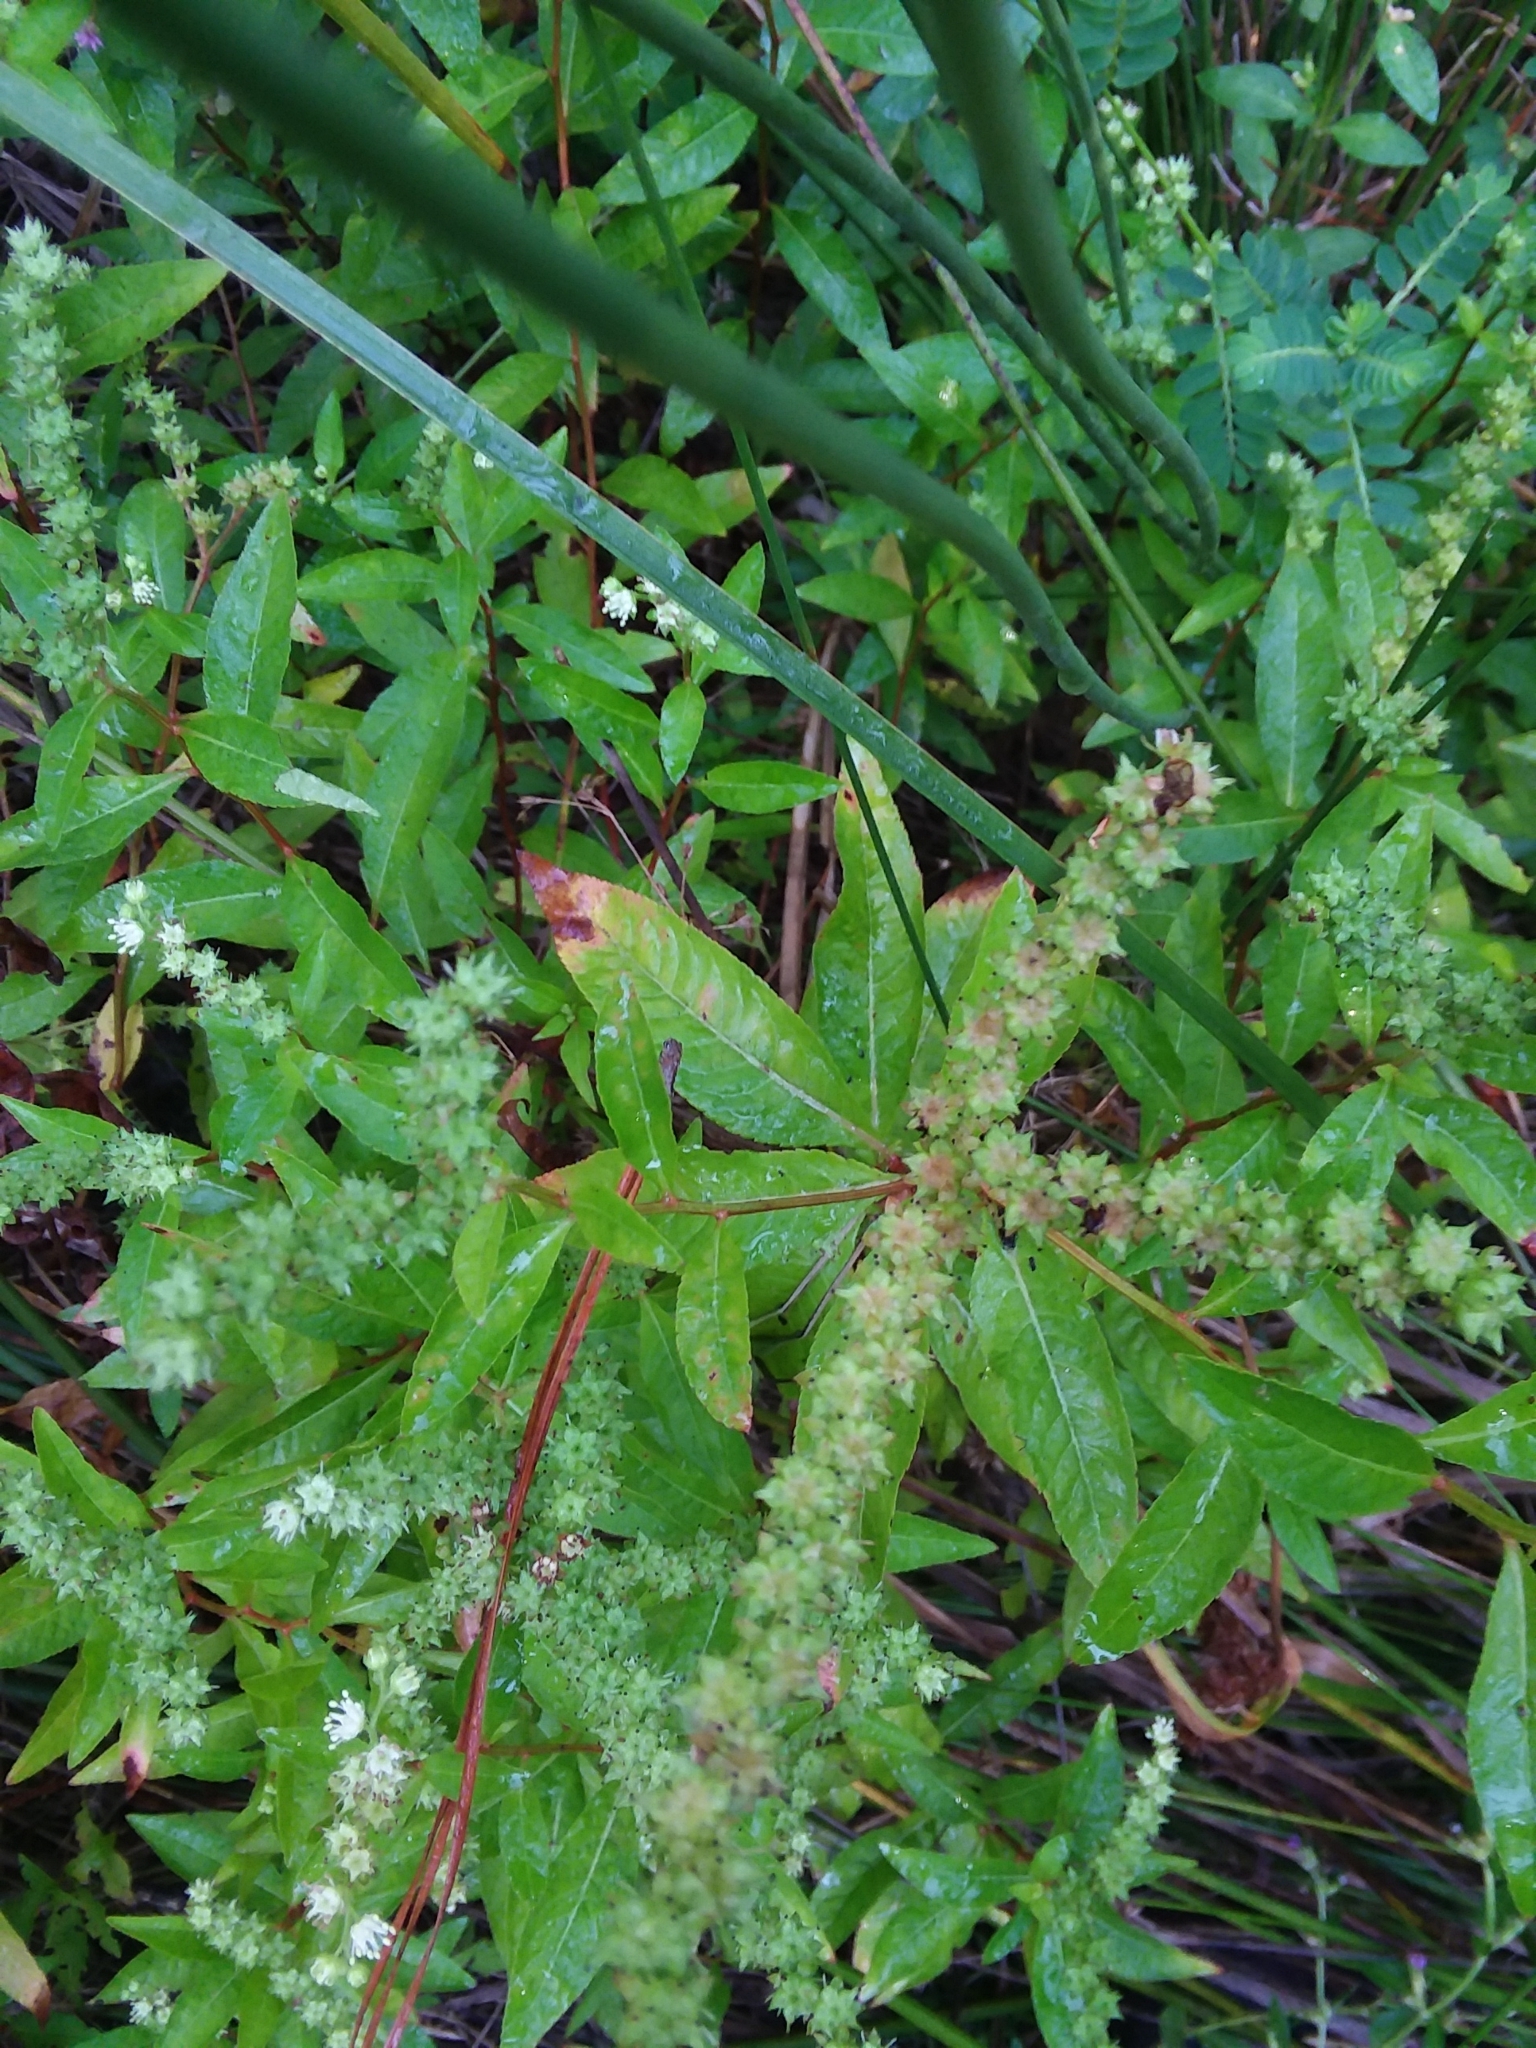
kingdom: Plantae
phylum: Tracheophyta
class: Magnoliopsida
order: Saxifragales
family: Penthoraceae
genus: Penthorum
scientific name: Penthorum sedoides
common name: Ditch stonecrop
